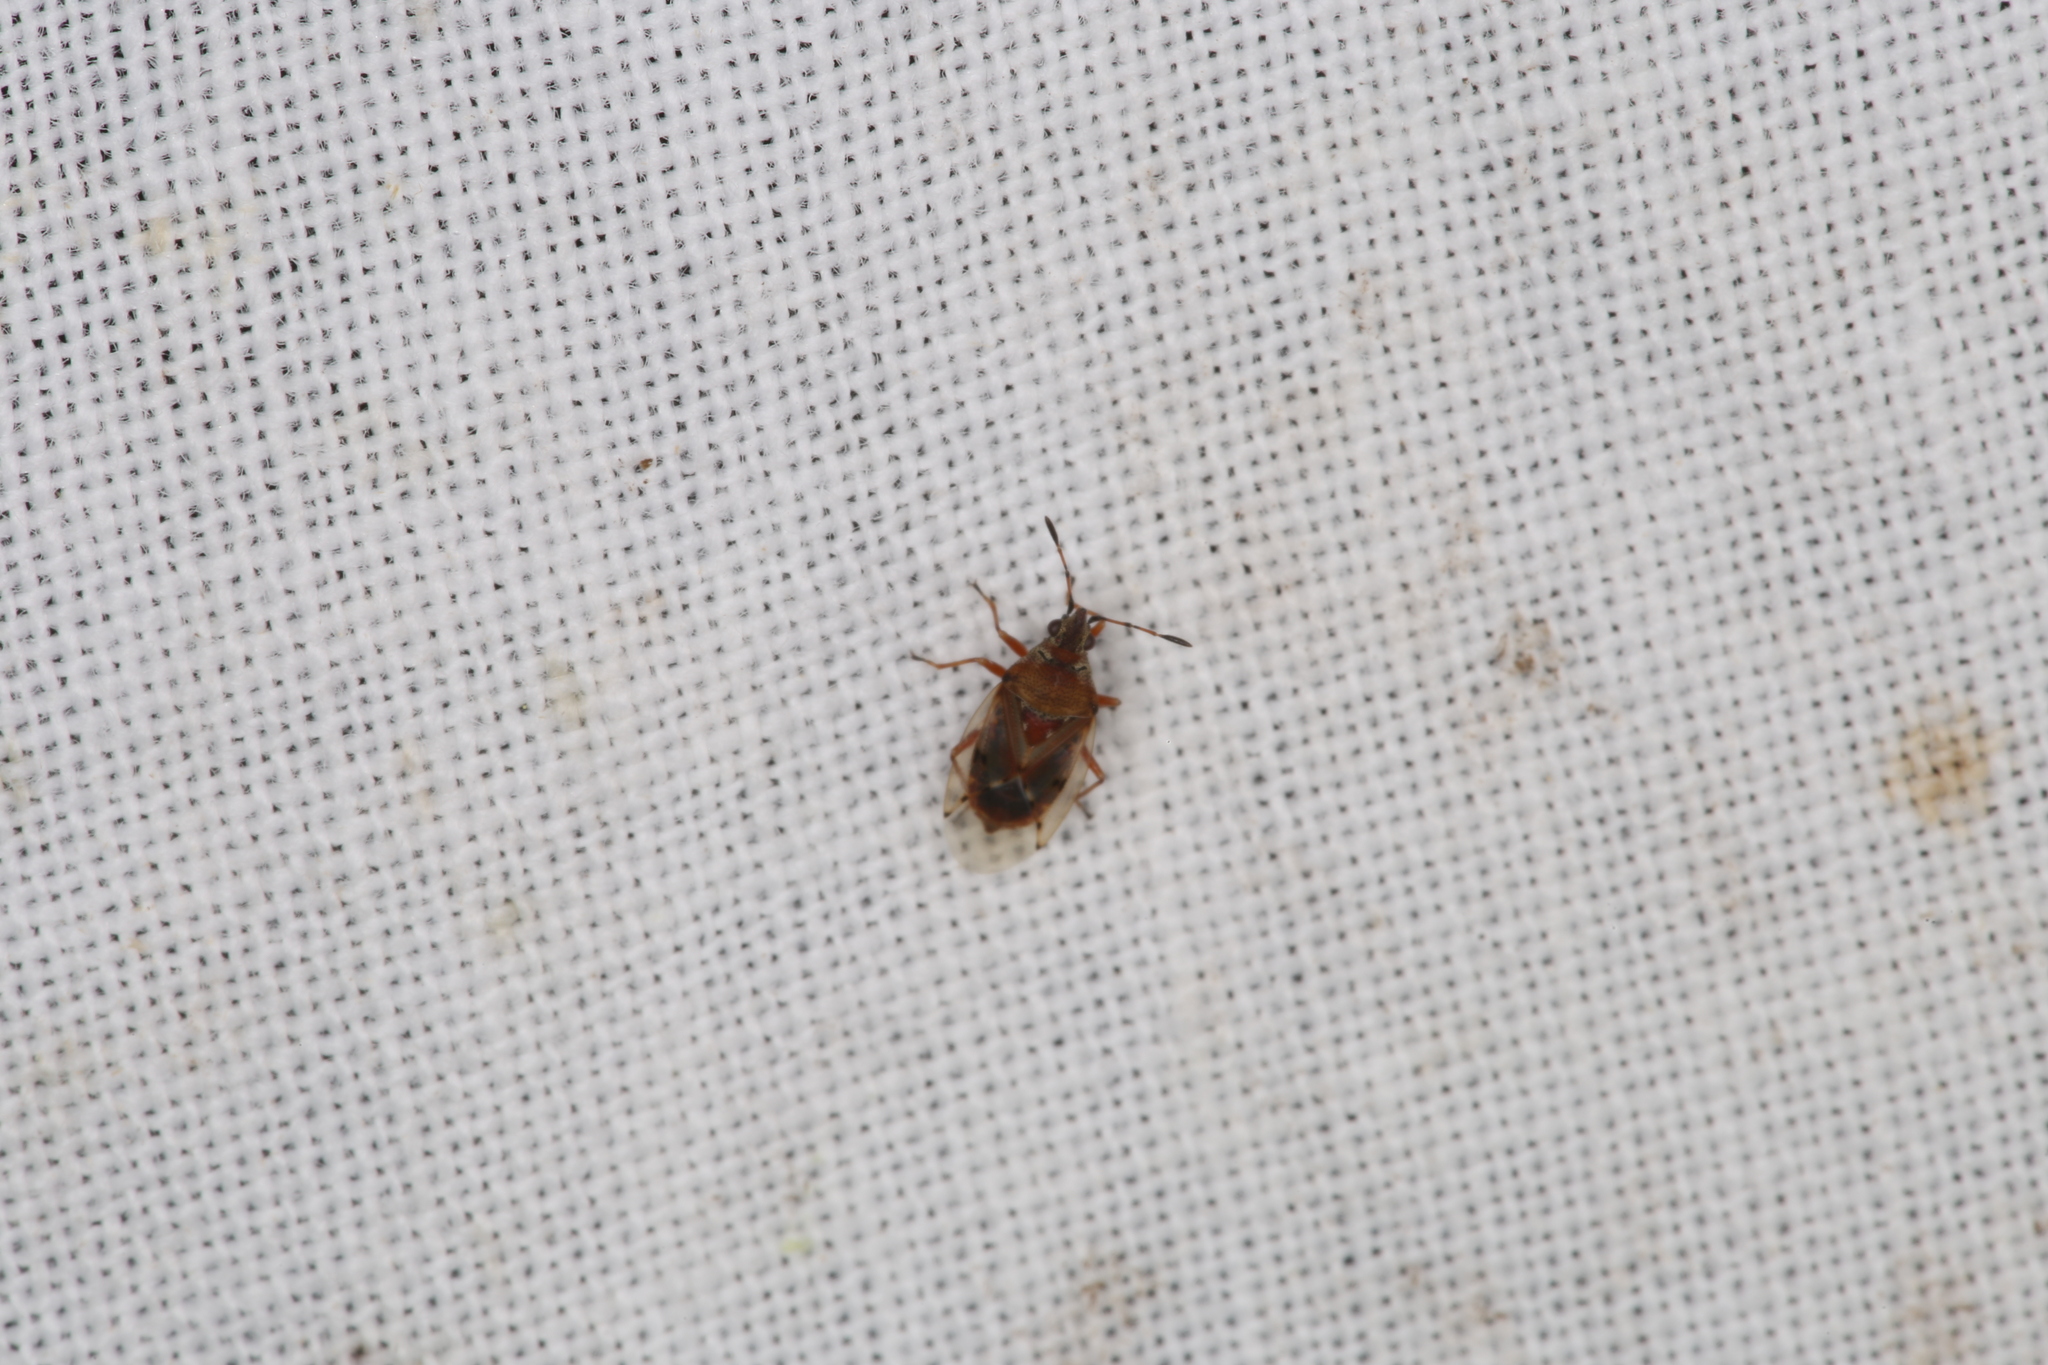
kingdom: Animalia
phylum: Arthropoda
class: Insecta
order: Hemiptera
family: Lygaeidae
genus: Kleidocerys
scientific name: Kleidocerys resedae
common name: Birch catkin bug
